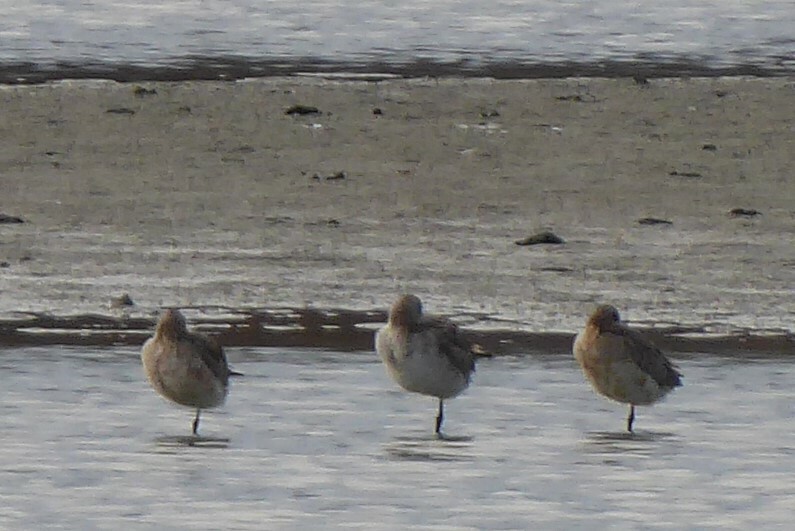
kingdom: Animalia
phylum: Chordata
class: Aves
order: Charadriiformes
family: Scolopacidae
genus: Limosa
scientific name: Limosa lapponica
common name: Bar-tailed godwit
